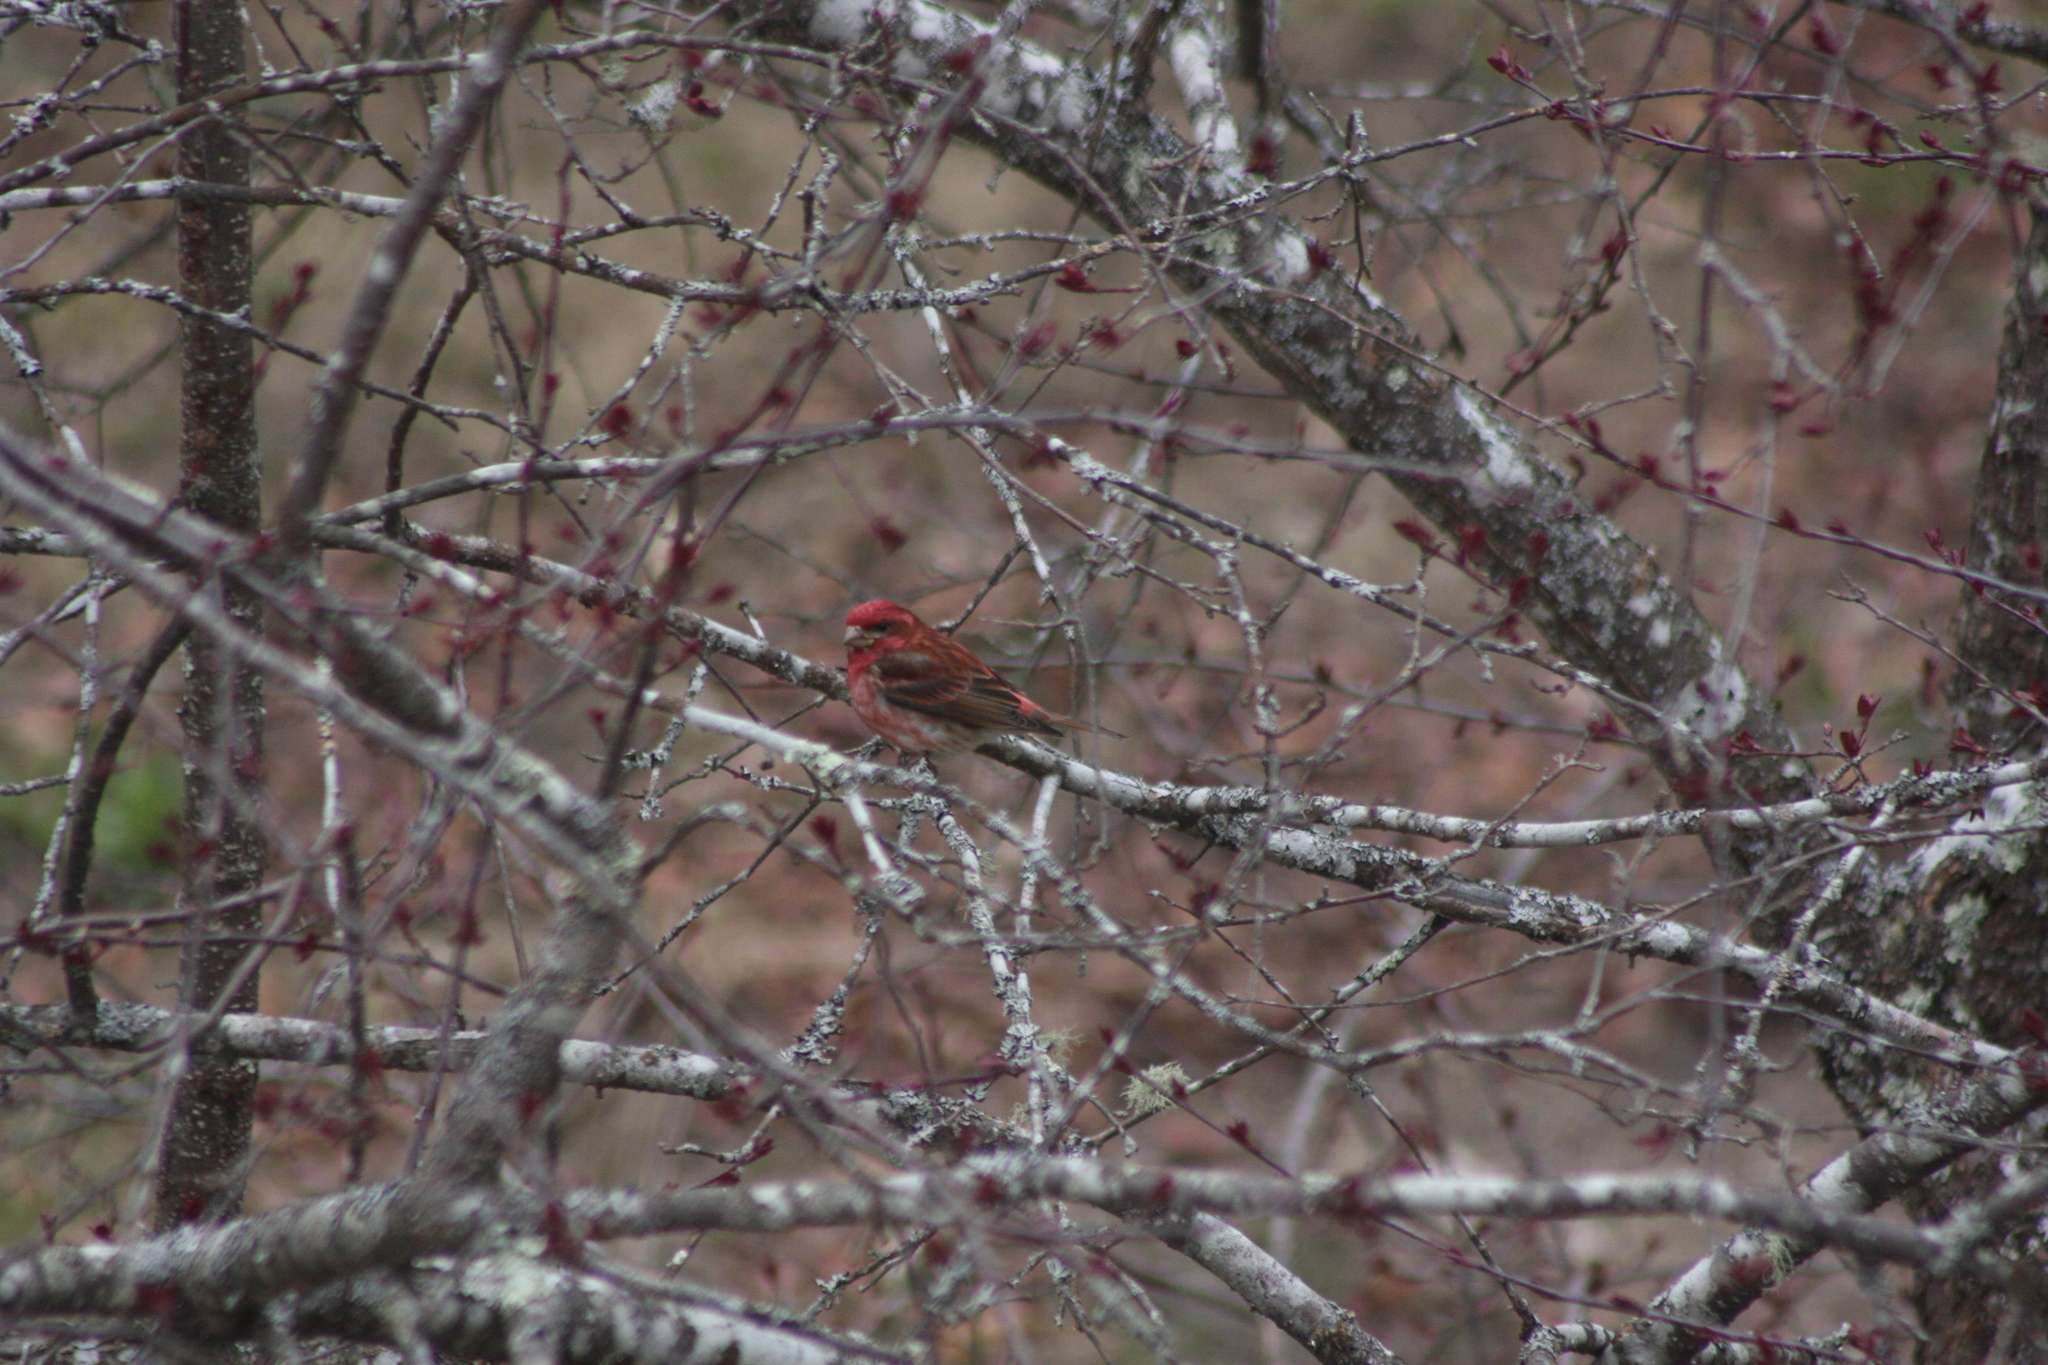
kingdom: Animalia
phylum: Chordata
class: Aves
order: Passeriformes
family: Fringillidae
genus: Haemorhous
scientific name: Haemorhous purpureus
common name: Purple finch
